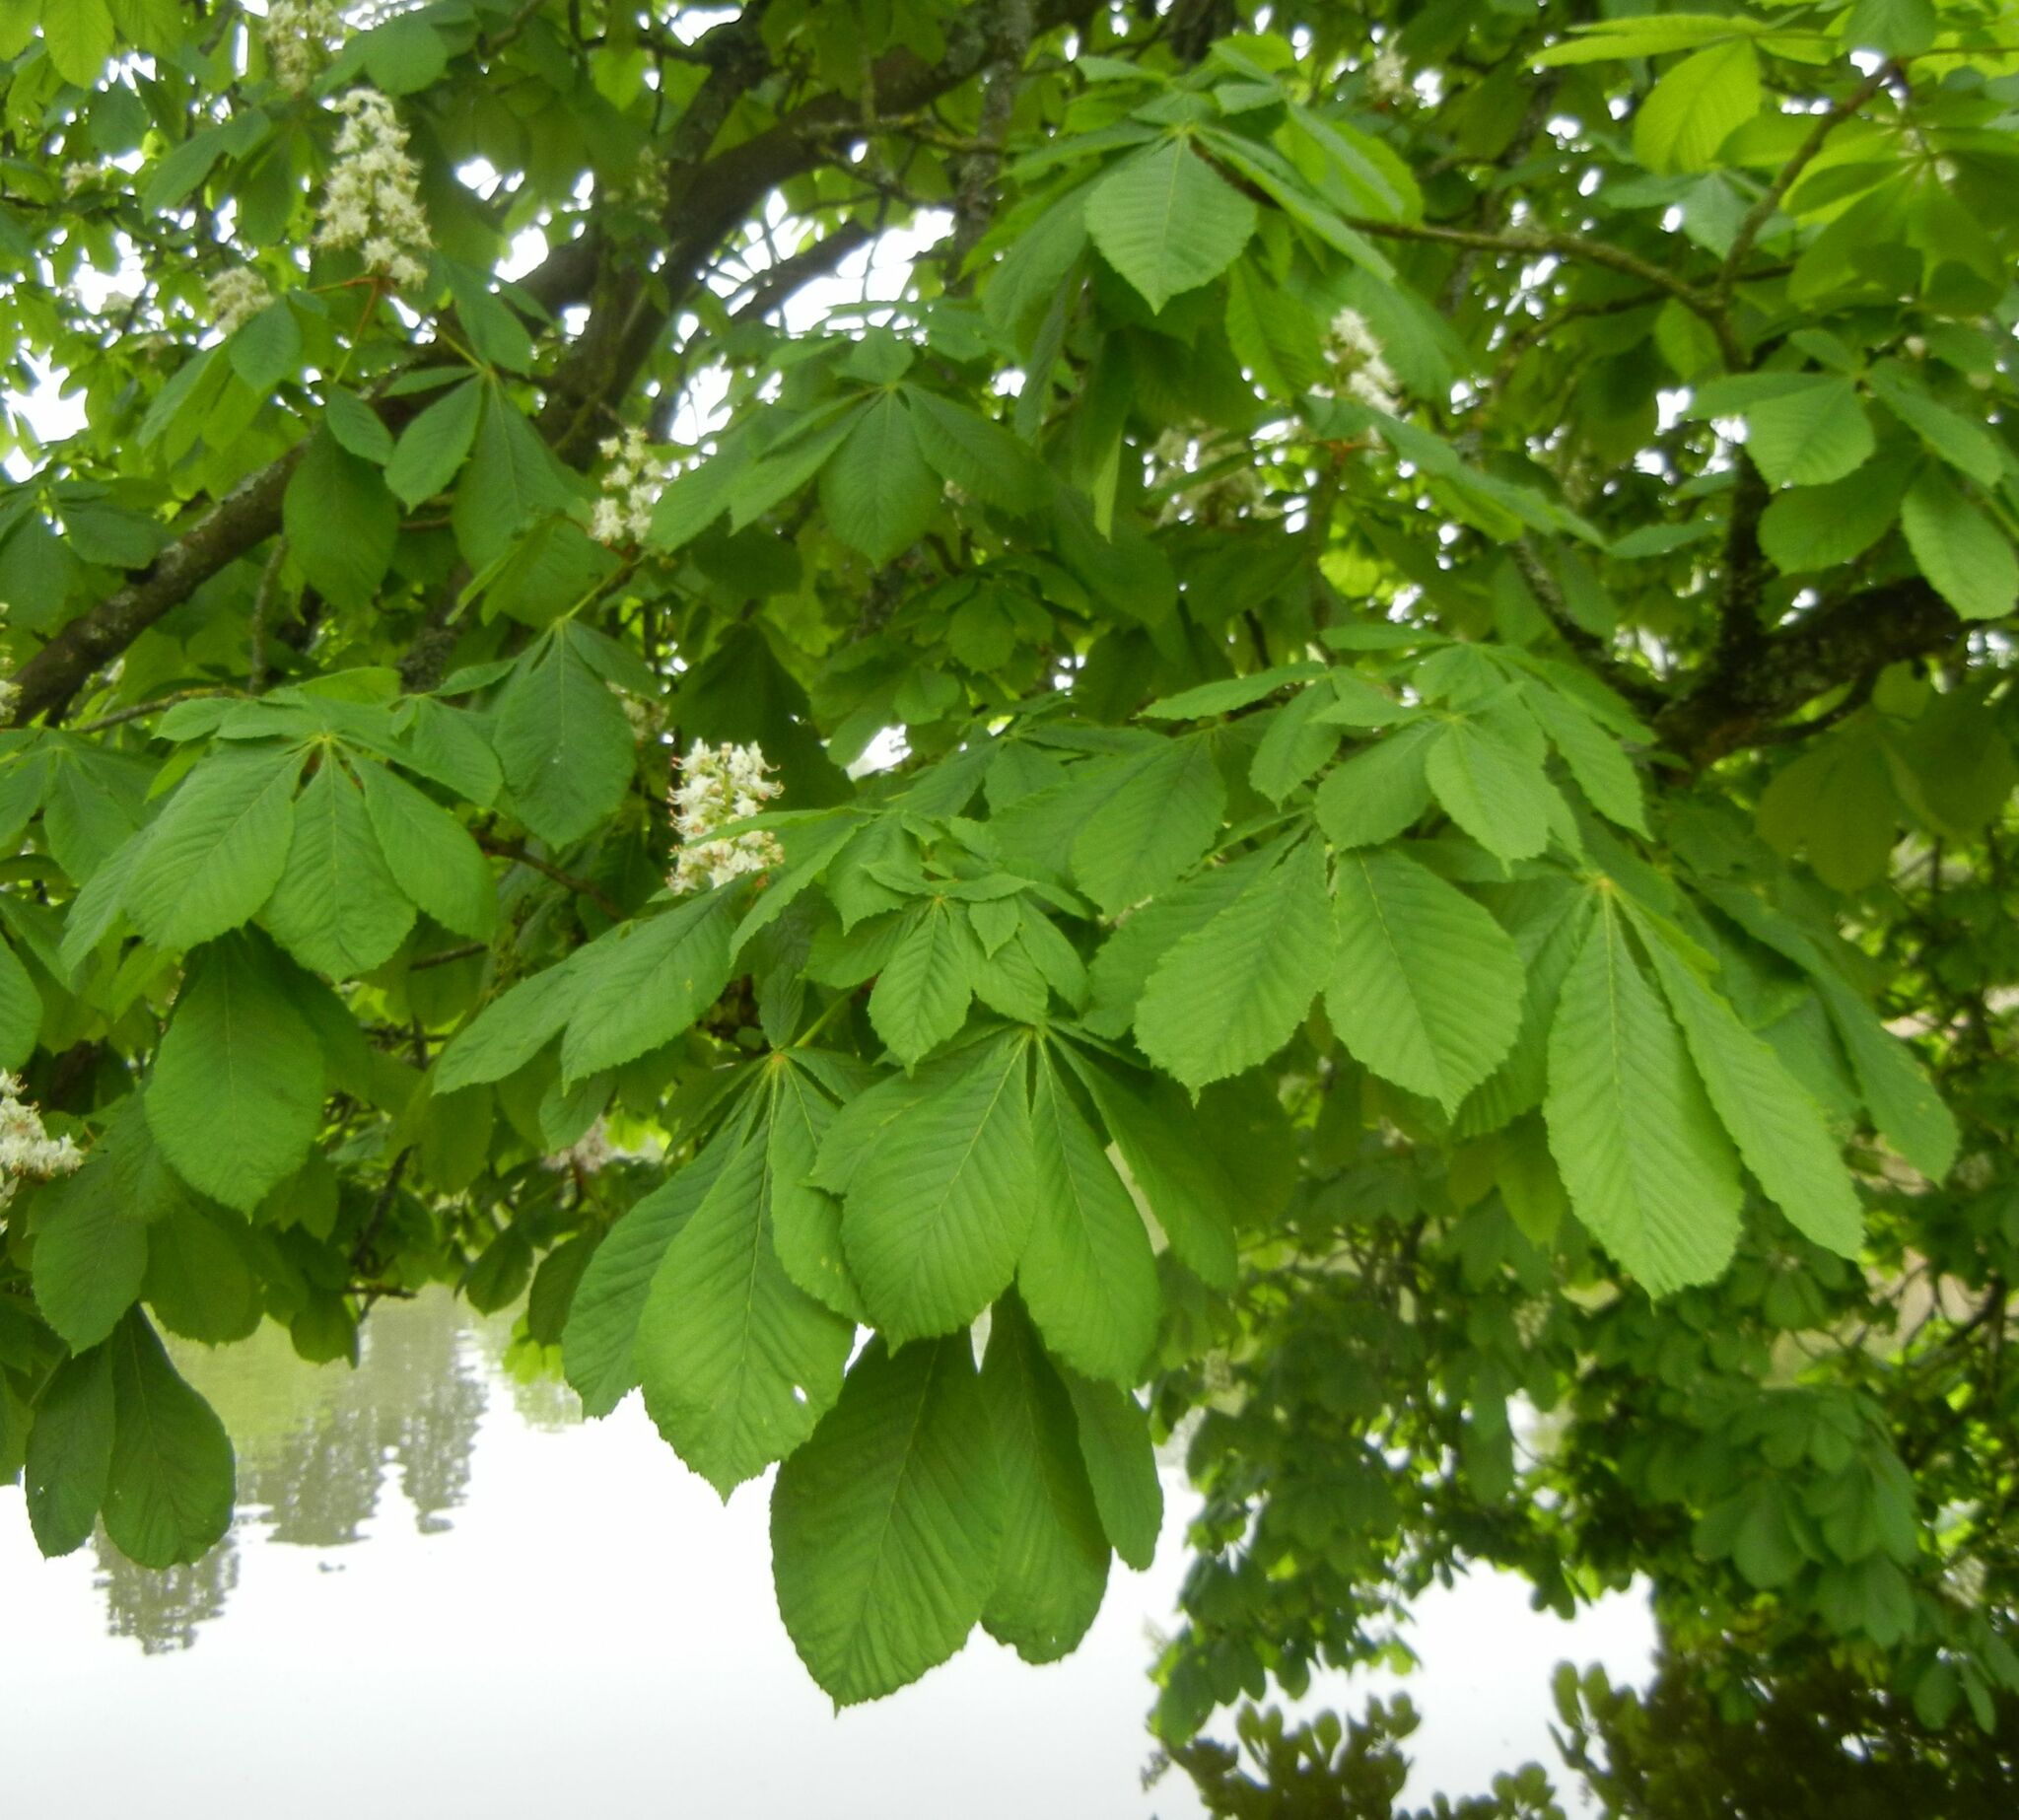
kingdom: Plantae
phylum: Tracheophyta
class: Magnoliopsida
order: Sapindales
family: Sapindaceae
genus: Aesculus
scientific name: Aesculus hippocastanum
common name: Horse-chestnut
